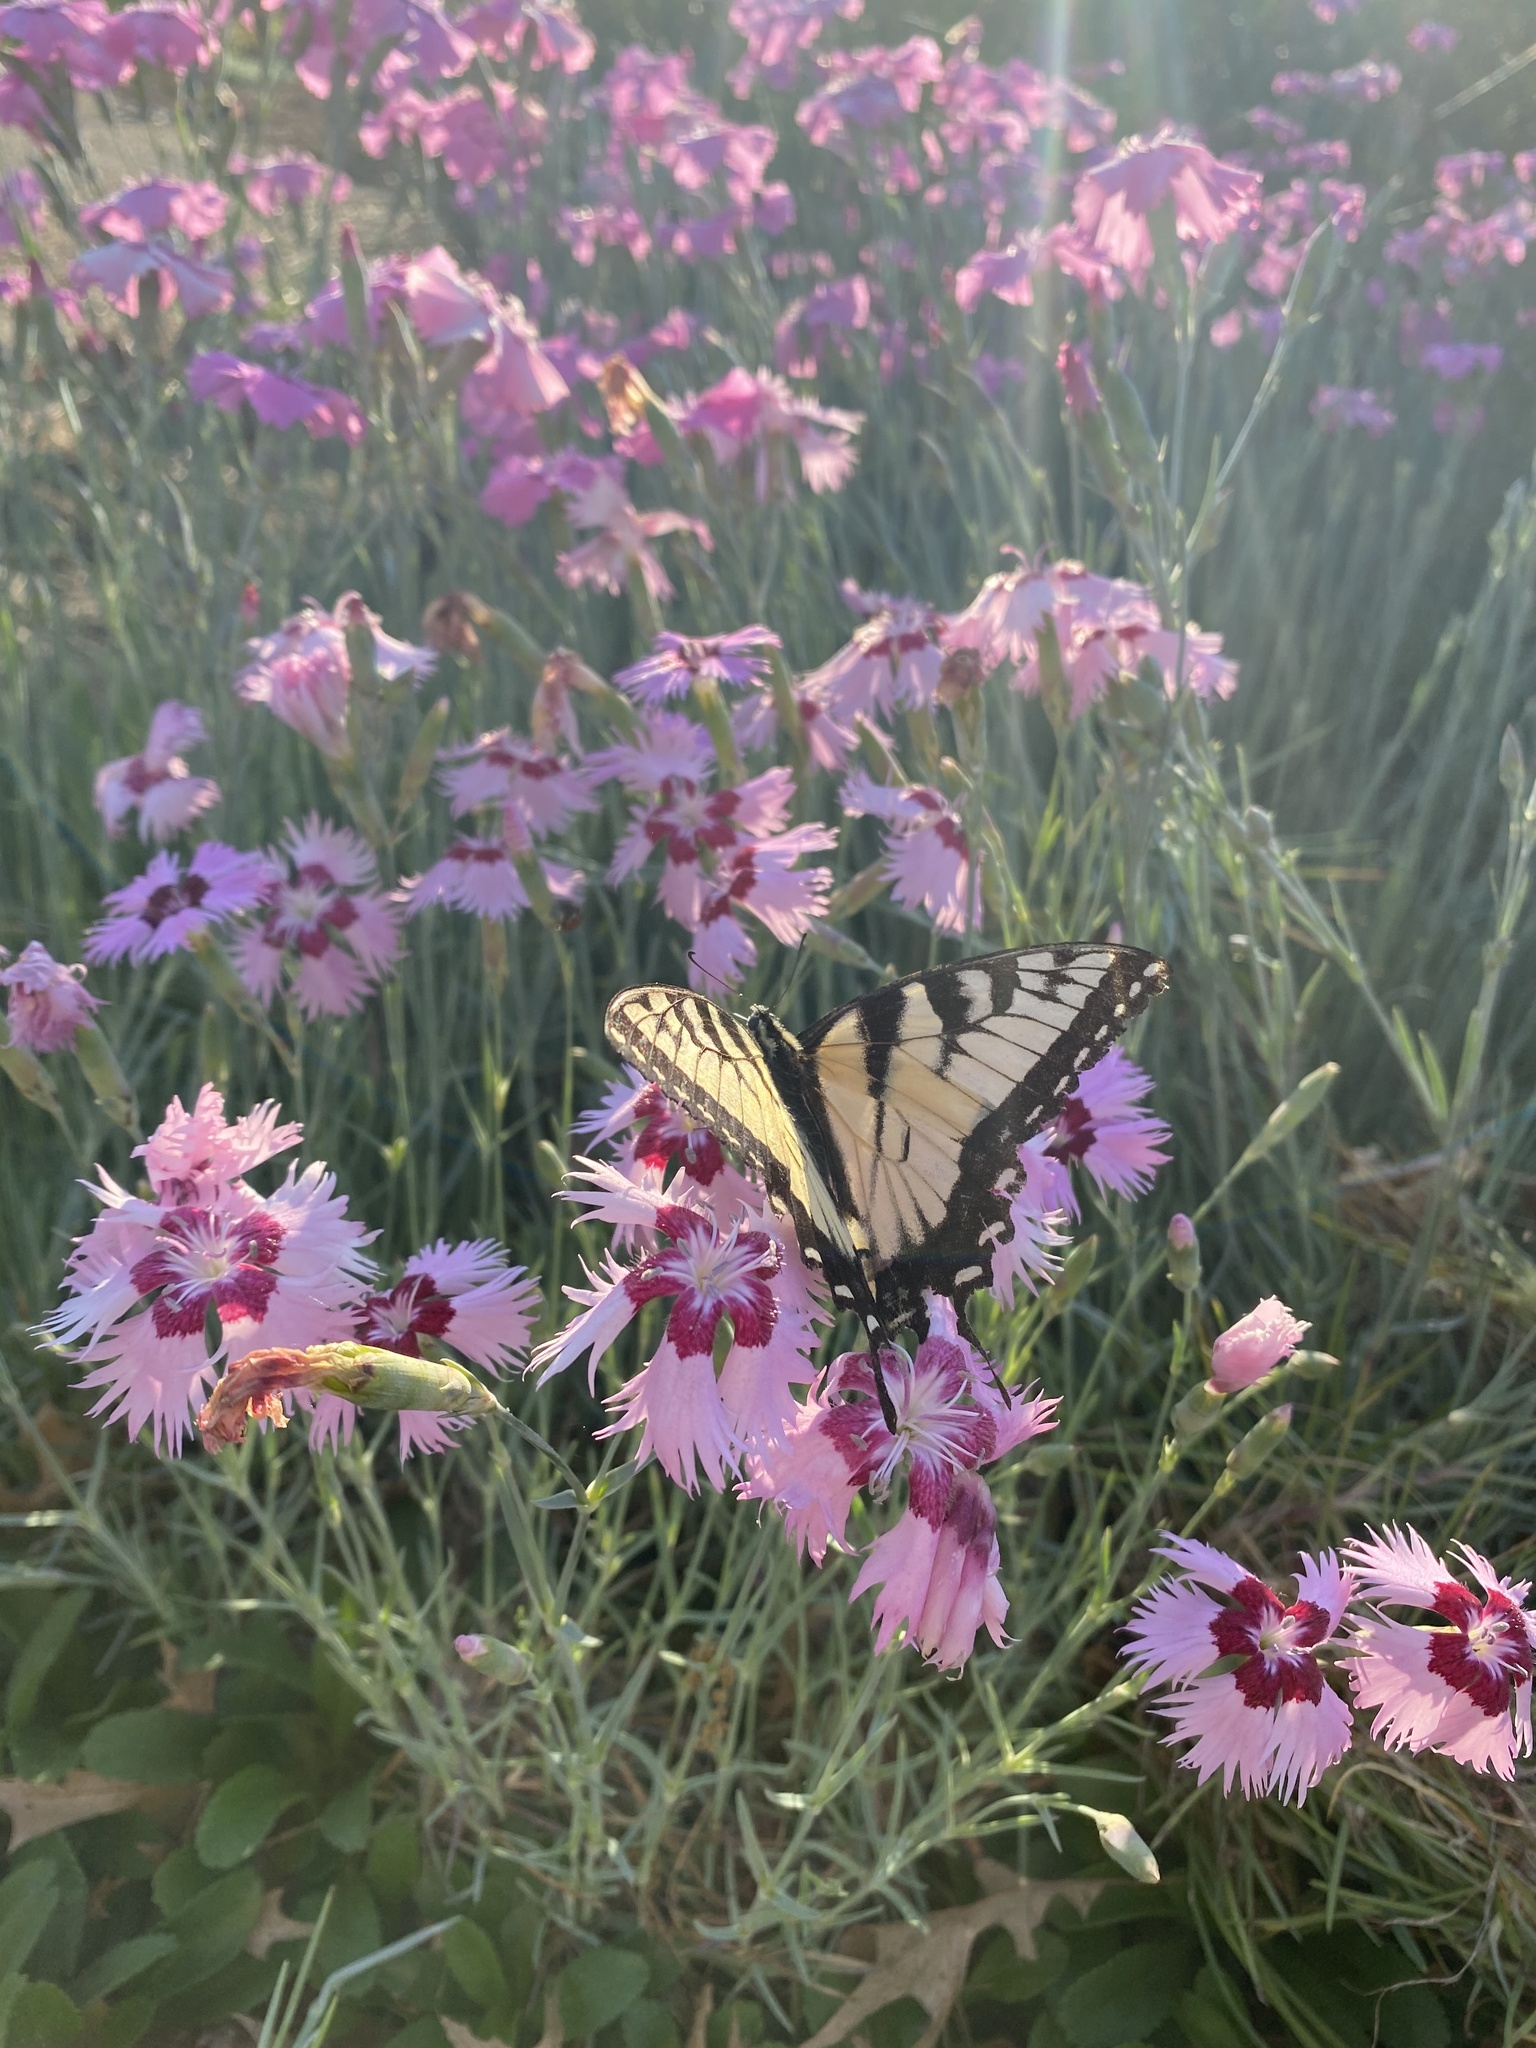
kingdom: Animalia
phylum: Arthropoda
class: Insecta
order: Lepidoptera
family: Papilionidae
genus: Papilio
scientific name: Papilio glaucus
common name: Tiger swallowtail
